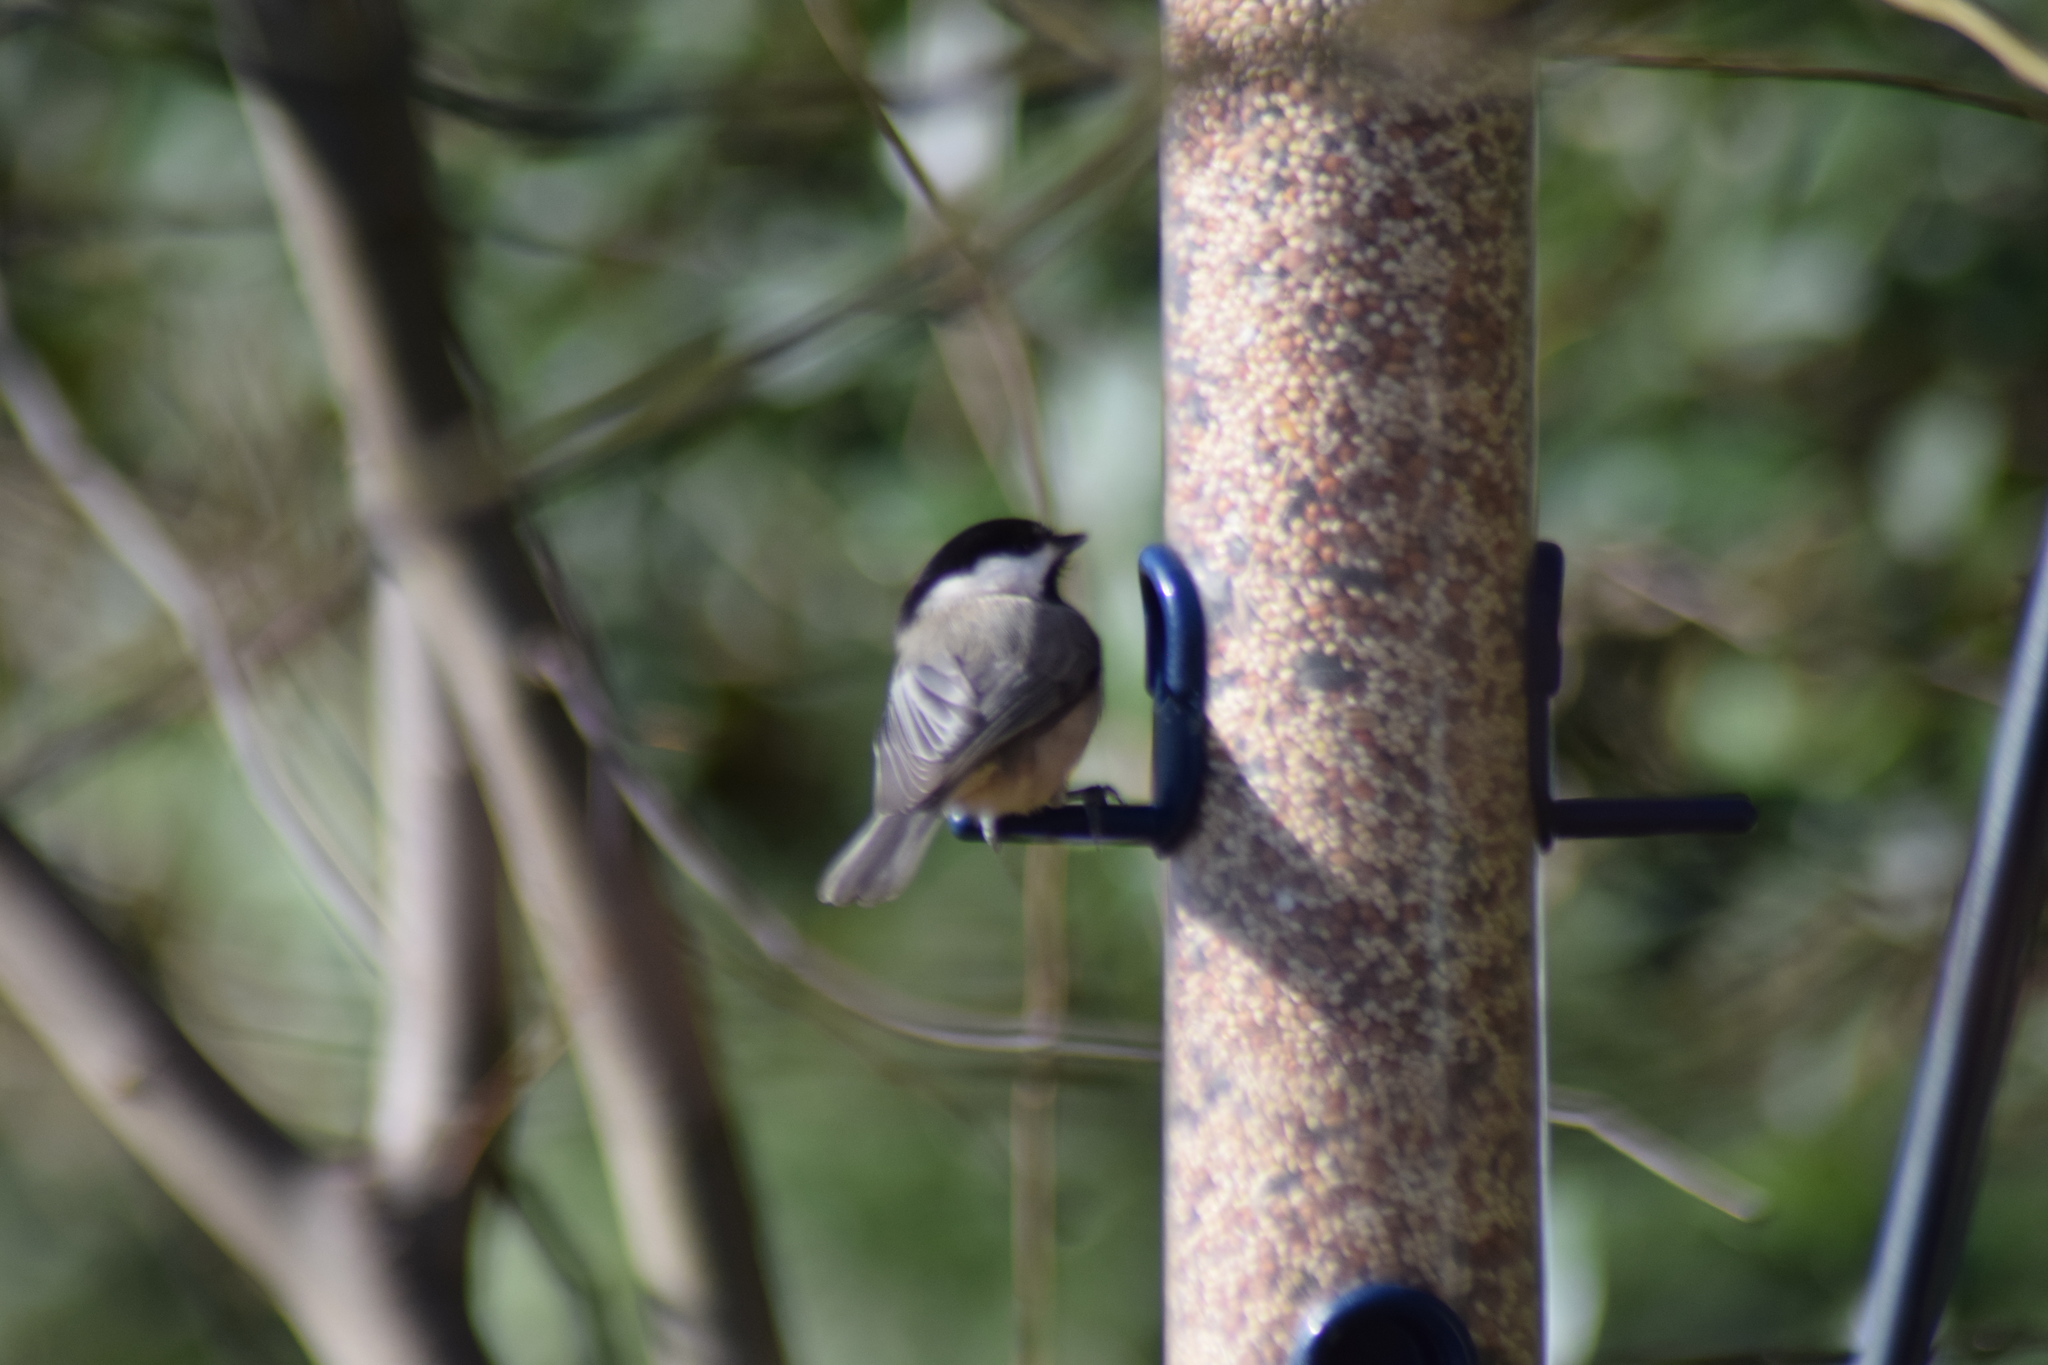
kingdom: Animalia
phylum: Chordata
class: Aves
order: Passeriformes
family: Paridae
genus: Poecile
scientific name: Poecile carolinensis
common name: Carolina chickadee
